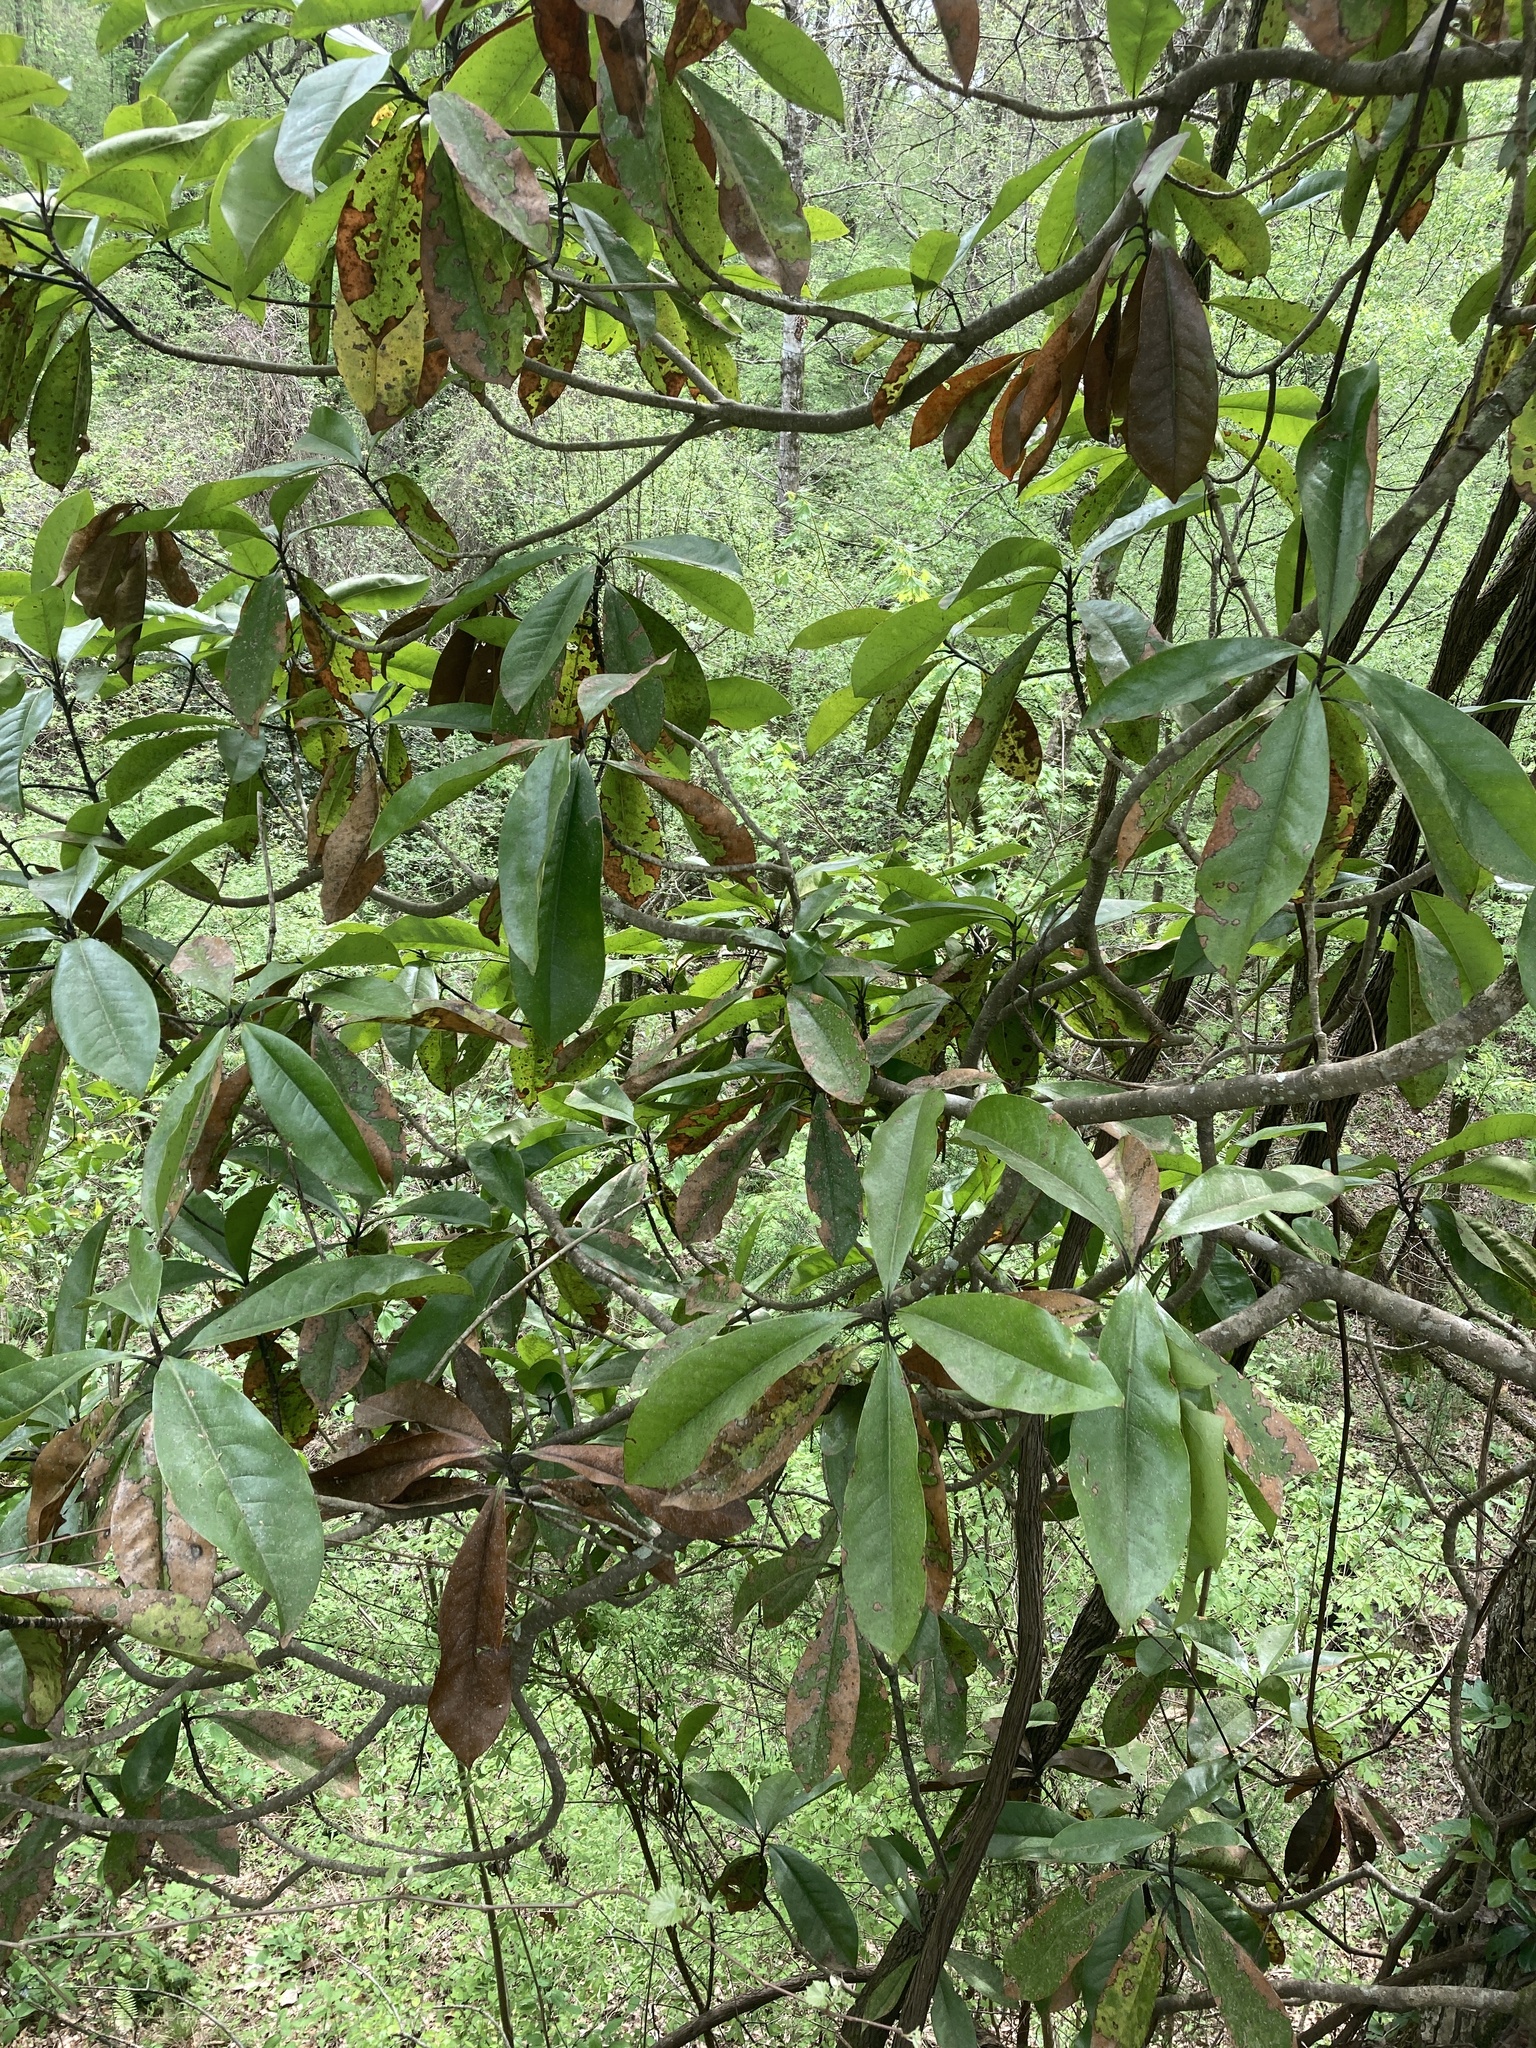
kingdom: Plantae
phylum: Tracheophyta
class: Magnoliopsida
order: Magnoliales
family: Magnoliaceae
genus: Magnolia
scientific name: Magnolia grandiflora
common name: Southern magnolia
